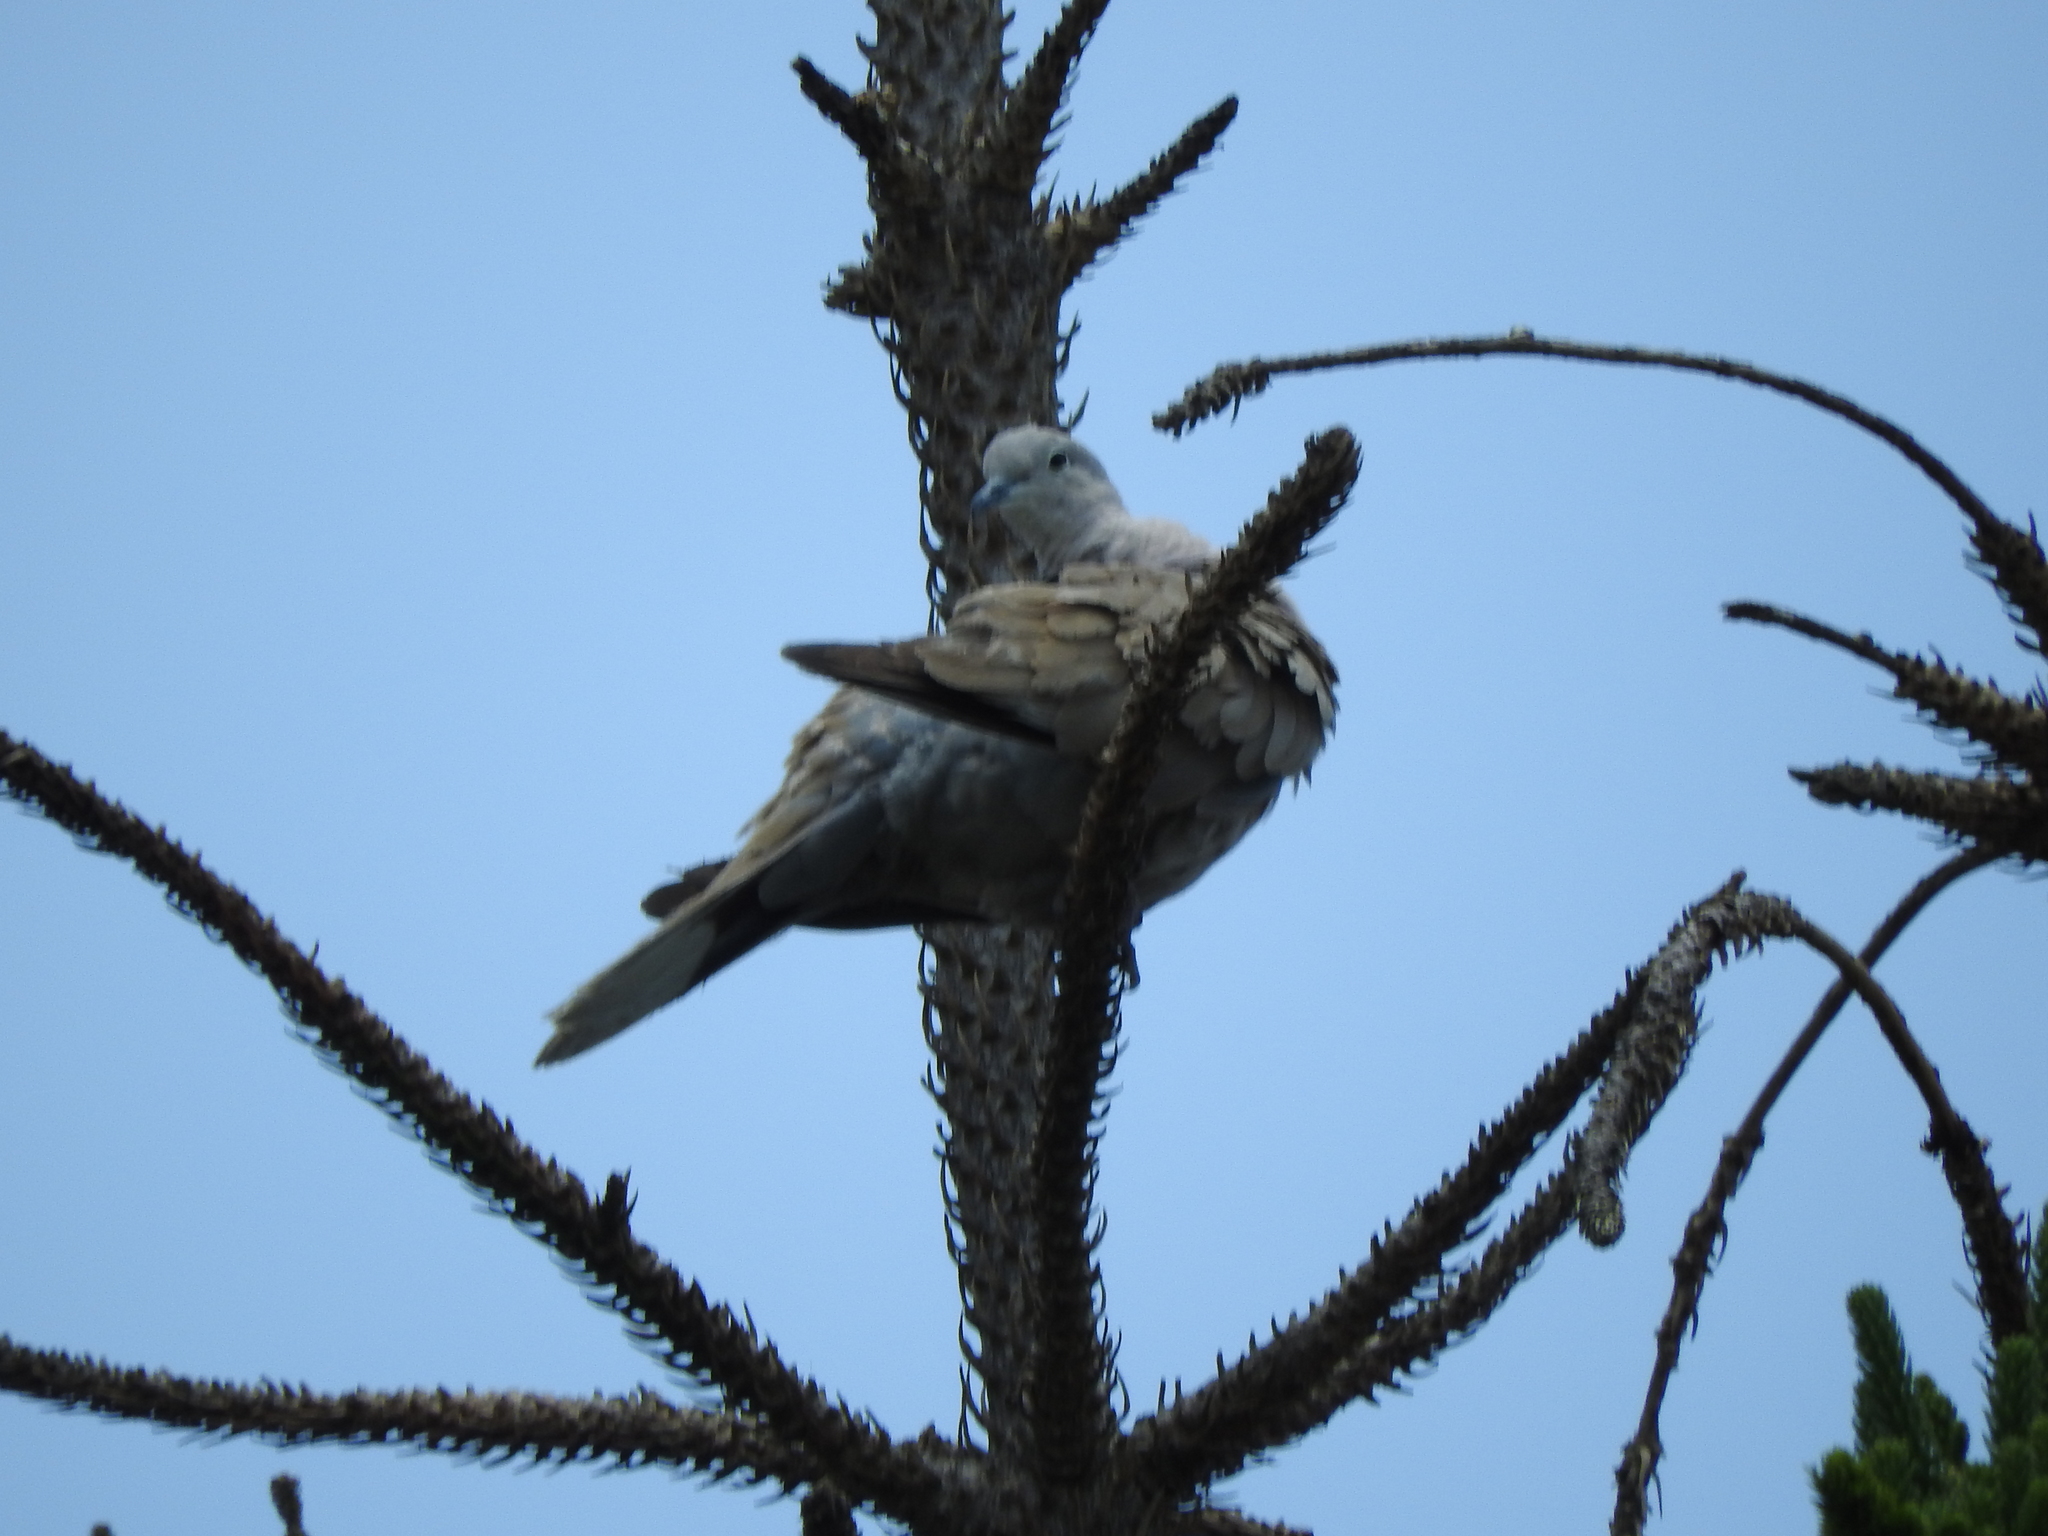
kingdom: Animalia
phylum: Chordata
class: Aves
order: Columbiformes
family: Columbidae
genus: Streptopelia
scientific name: Streptopelia decaocto
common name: Eurasian collared dove
